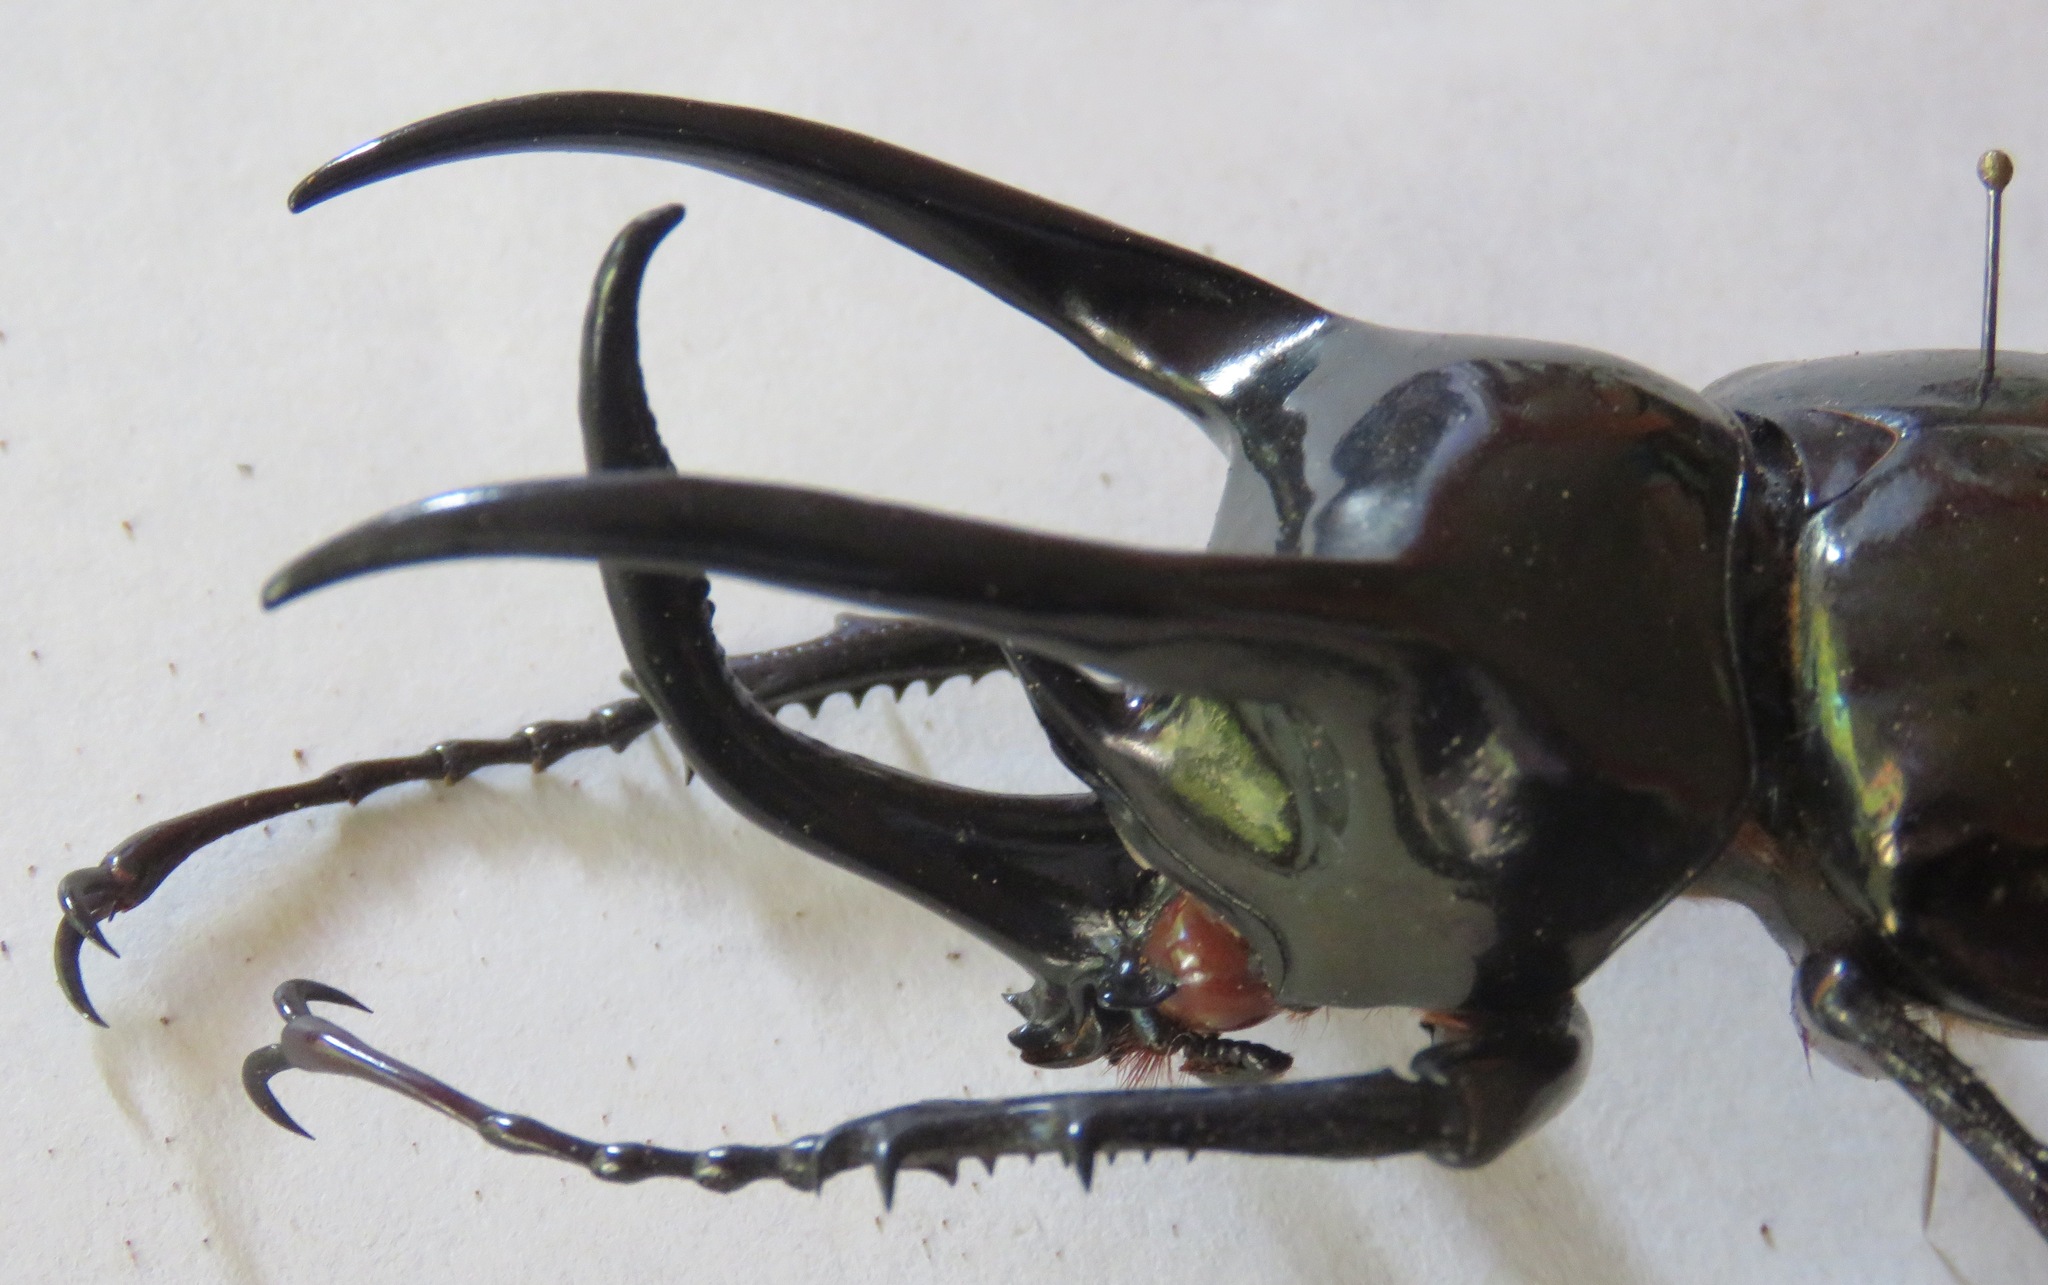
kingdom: Animalia
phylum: Arthropoda
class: Insecta
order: Coleoptera
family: Scarabaeidae
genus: Chalcosoma
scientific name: Chalcosoma atlas
